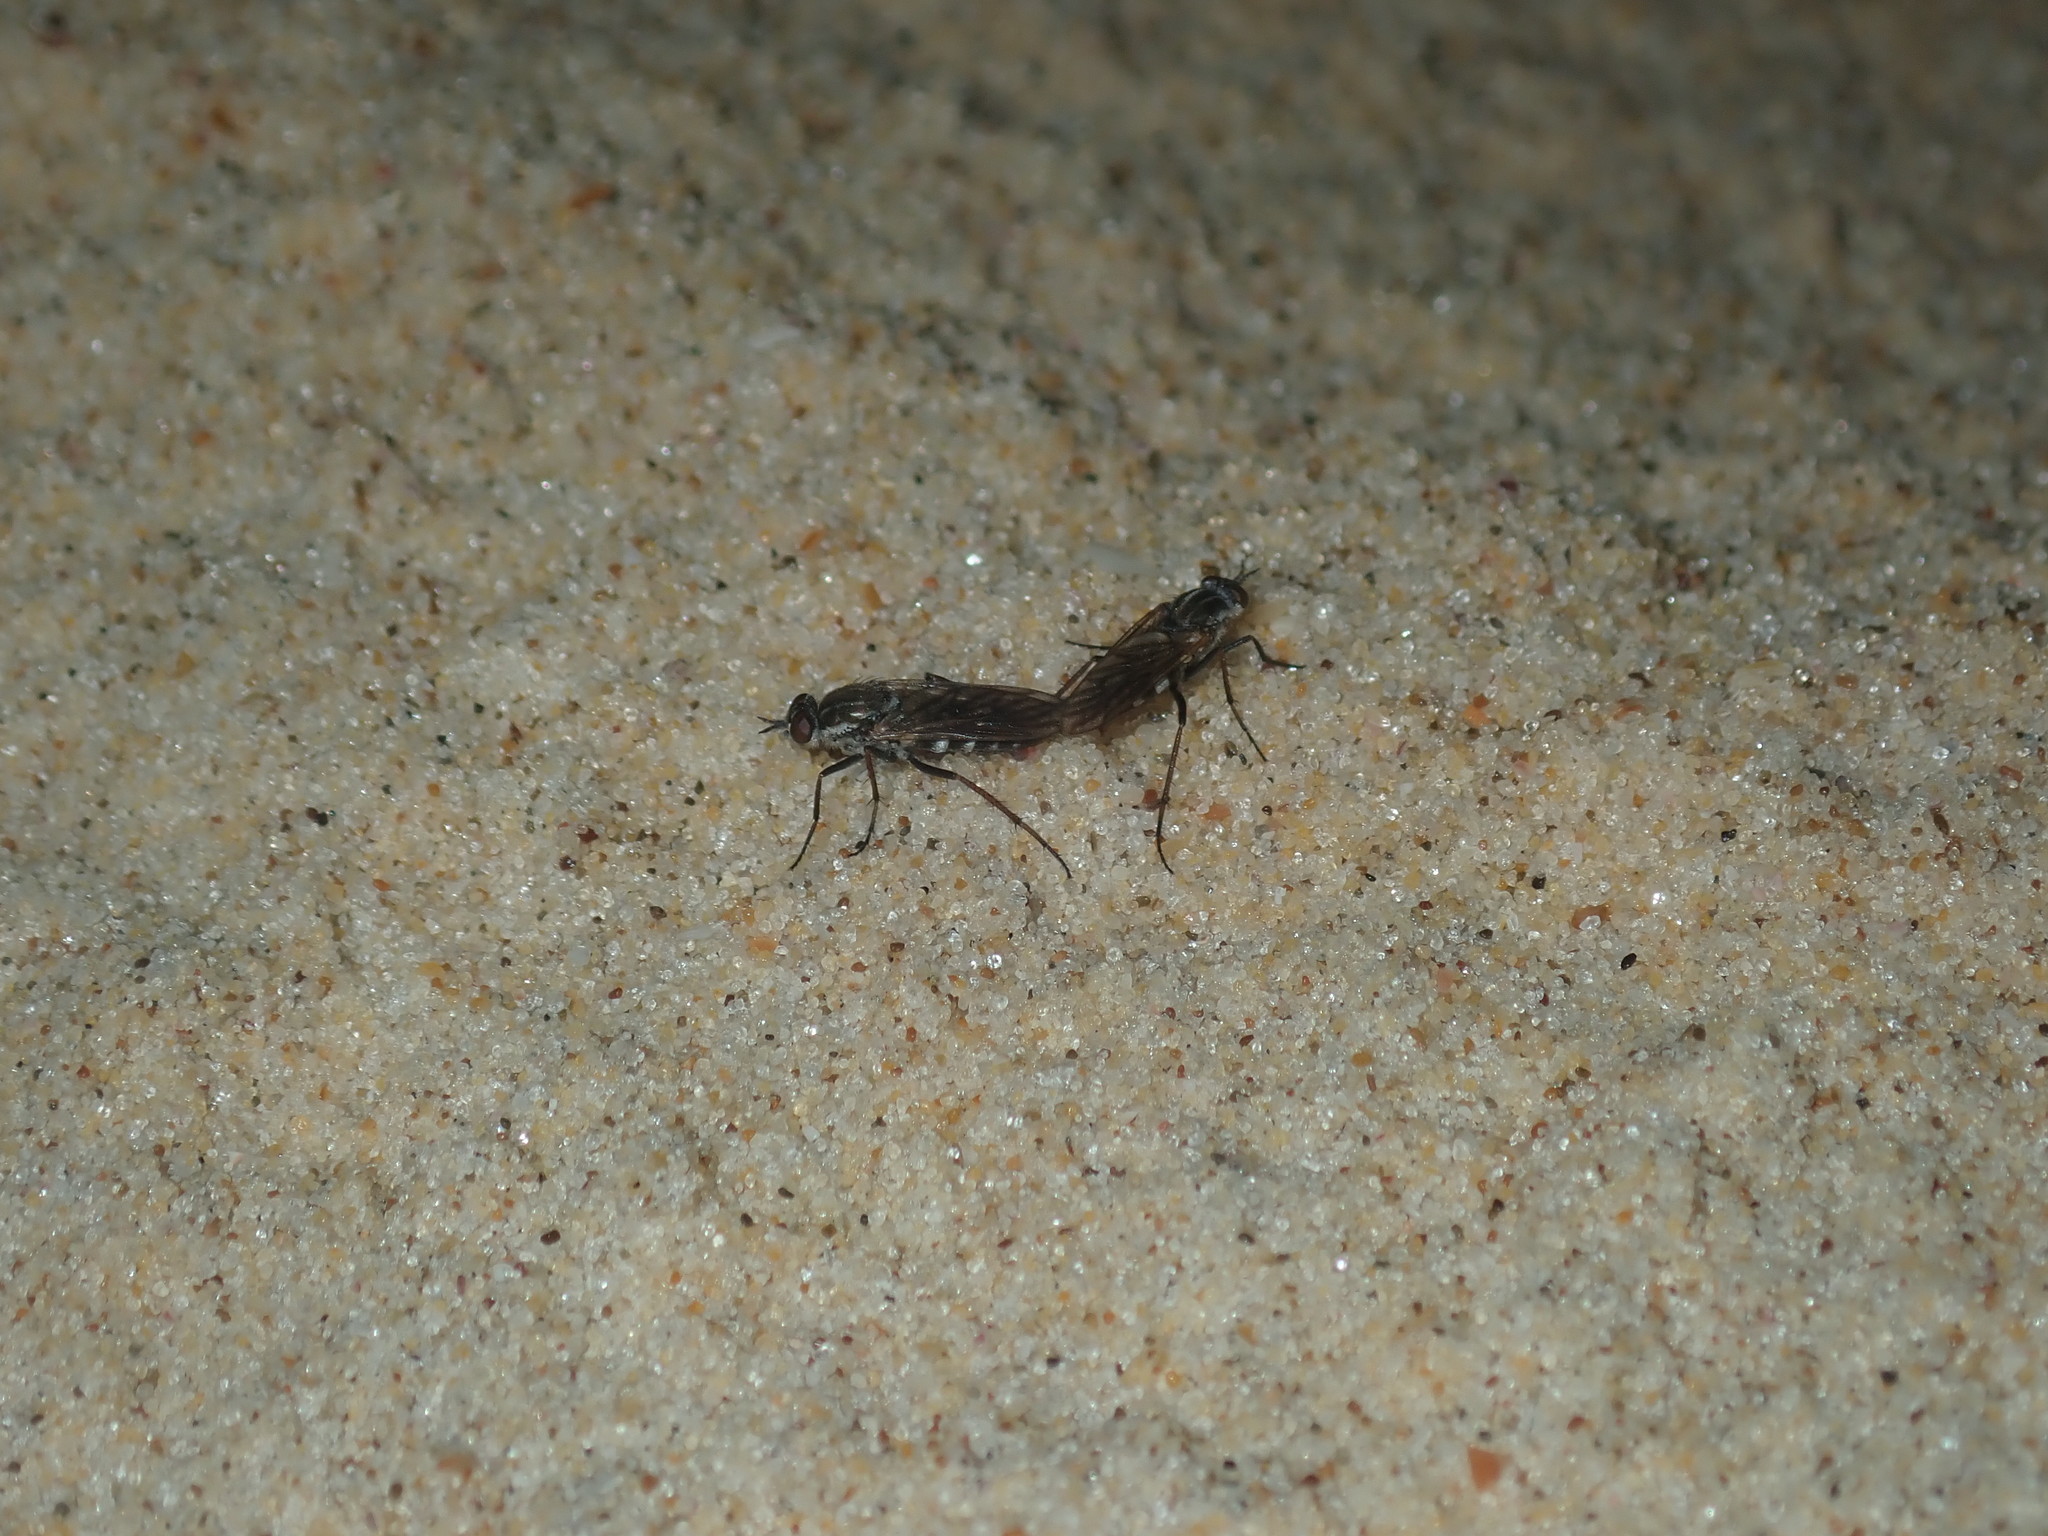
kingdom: Animalia
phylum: Arthropoda
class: Insecta
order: Diptera
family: Therevidae
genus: Anabarhynchus
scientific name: Anabarhynchus hyalipennis
